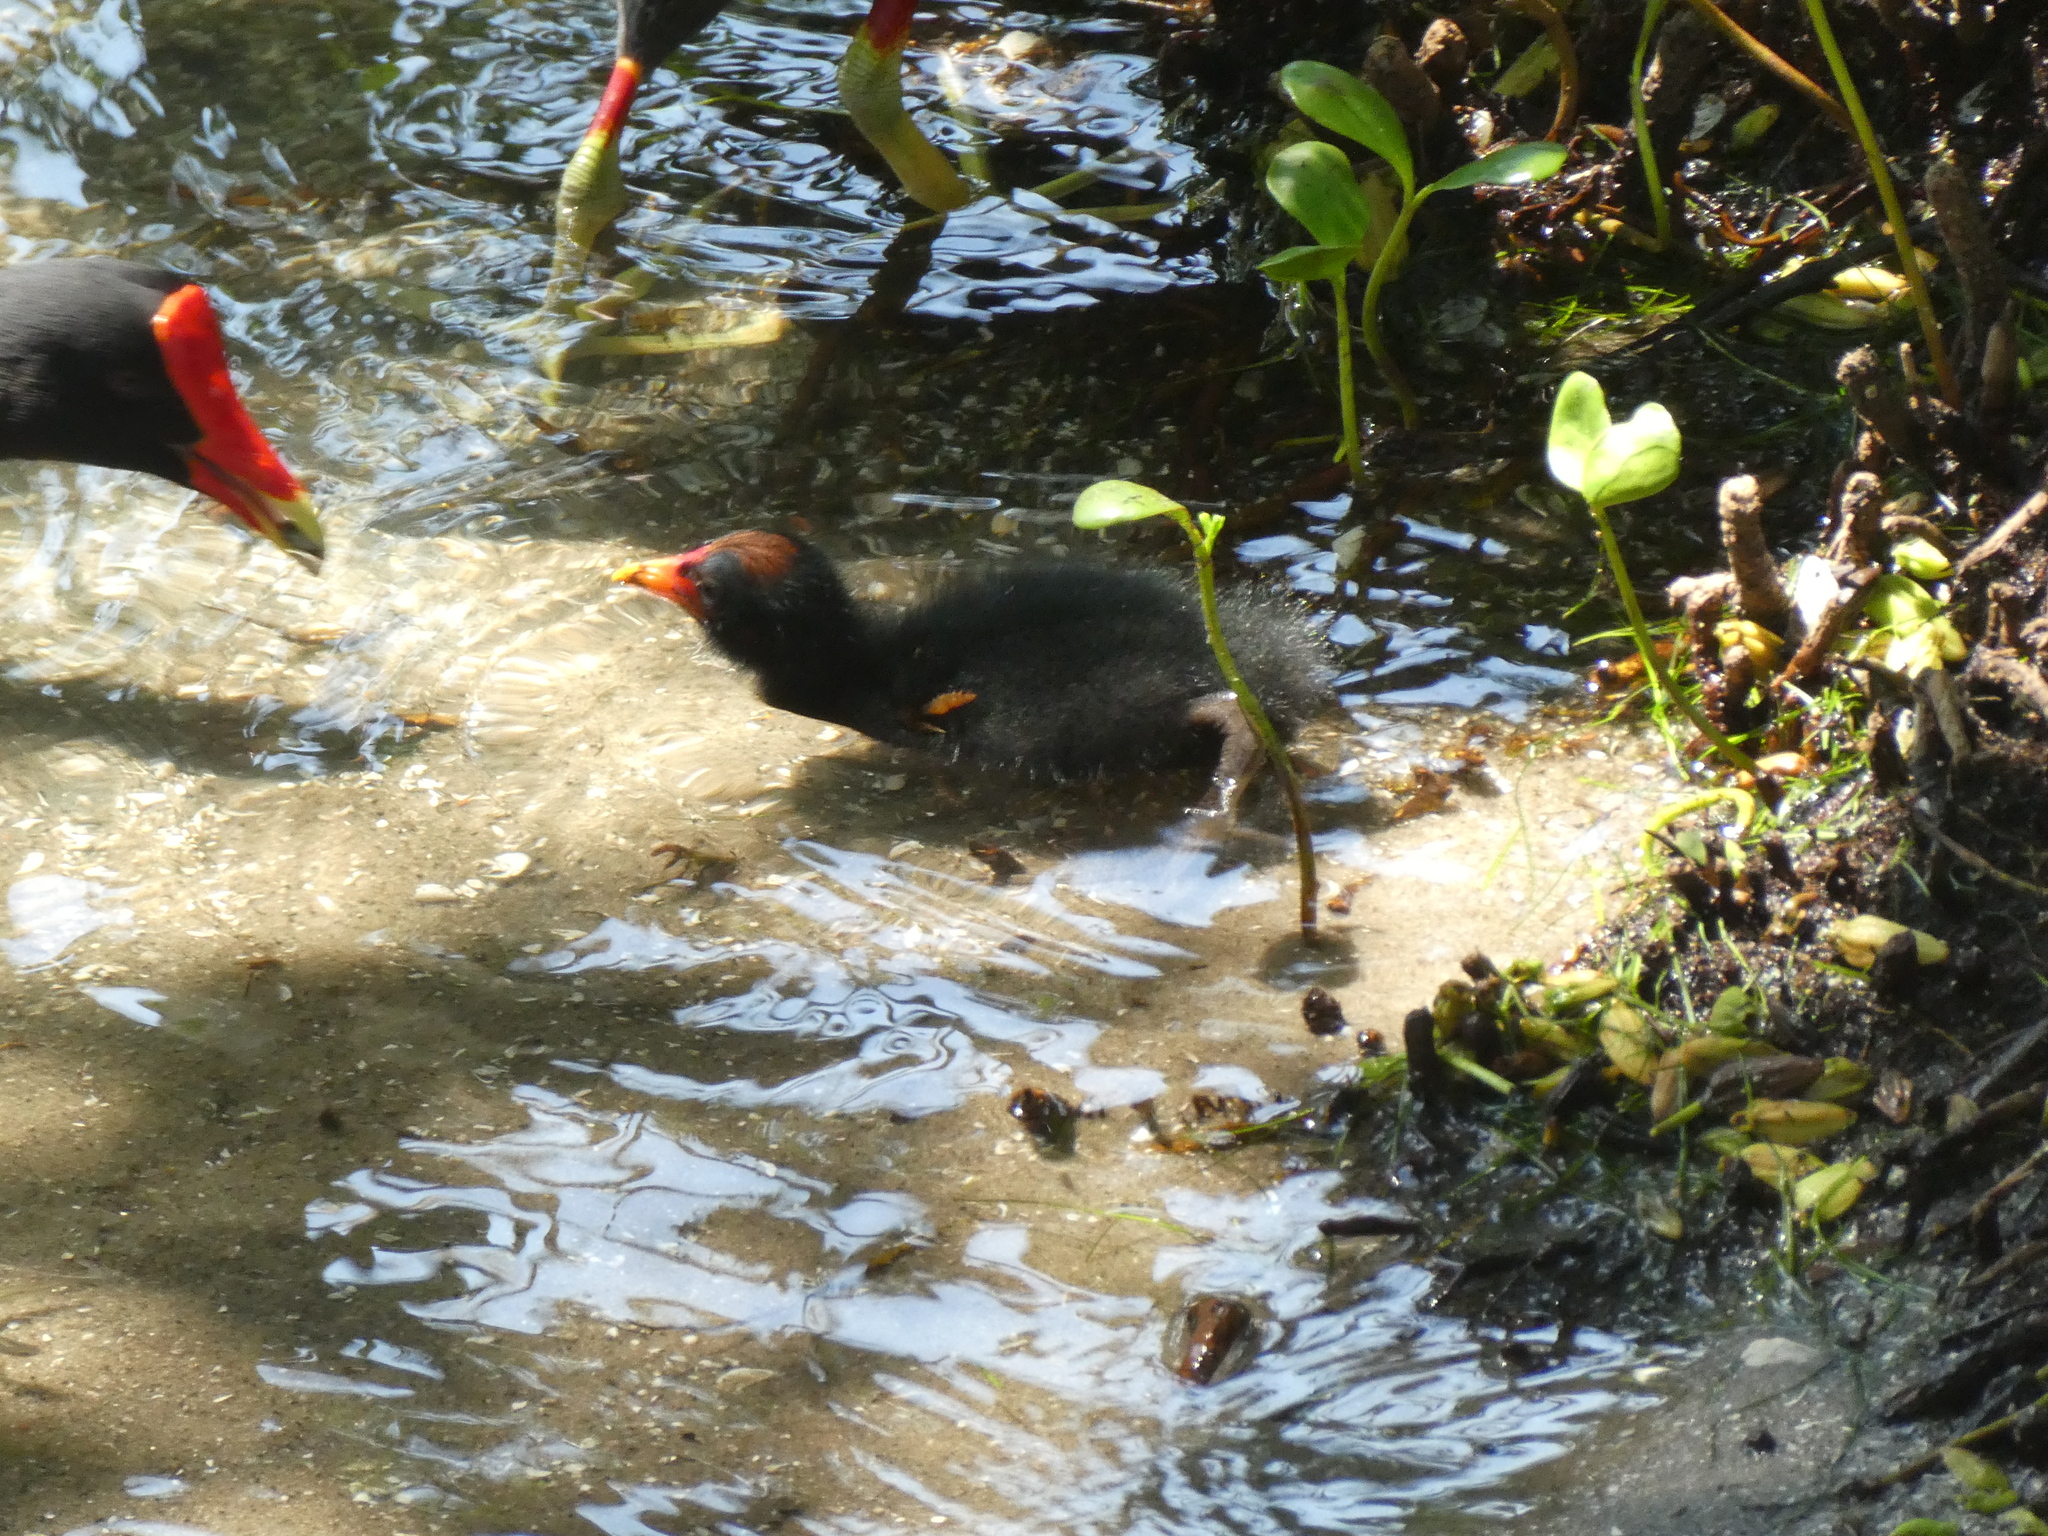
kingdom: Animalia
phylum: Chordata
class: Aves
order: Gruiformes
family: Rallidae
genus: Gallinula
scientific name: Gallinula chloropus
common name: Common moorhen
